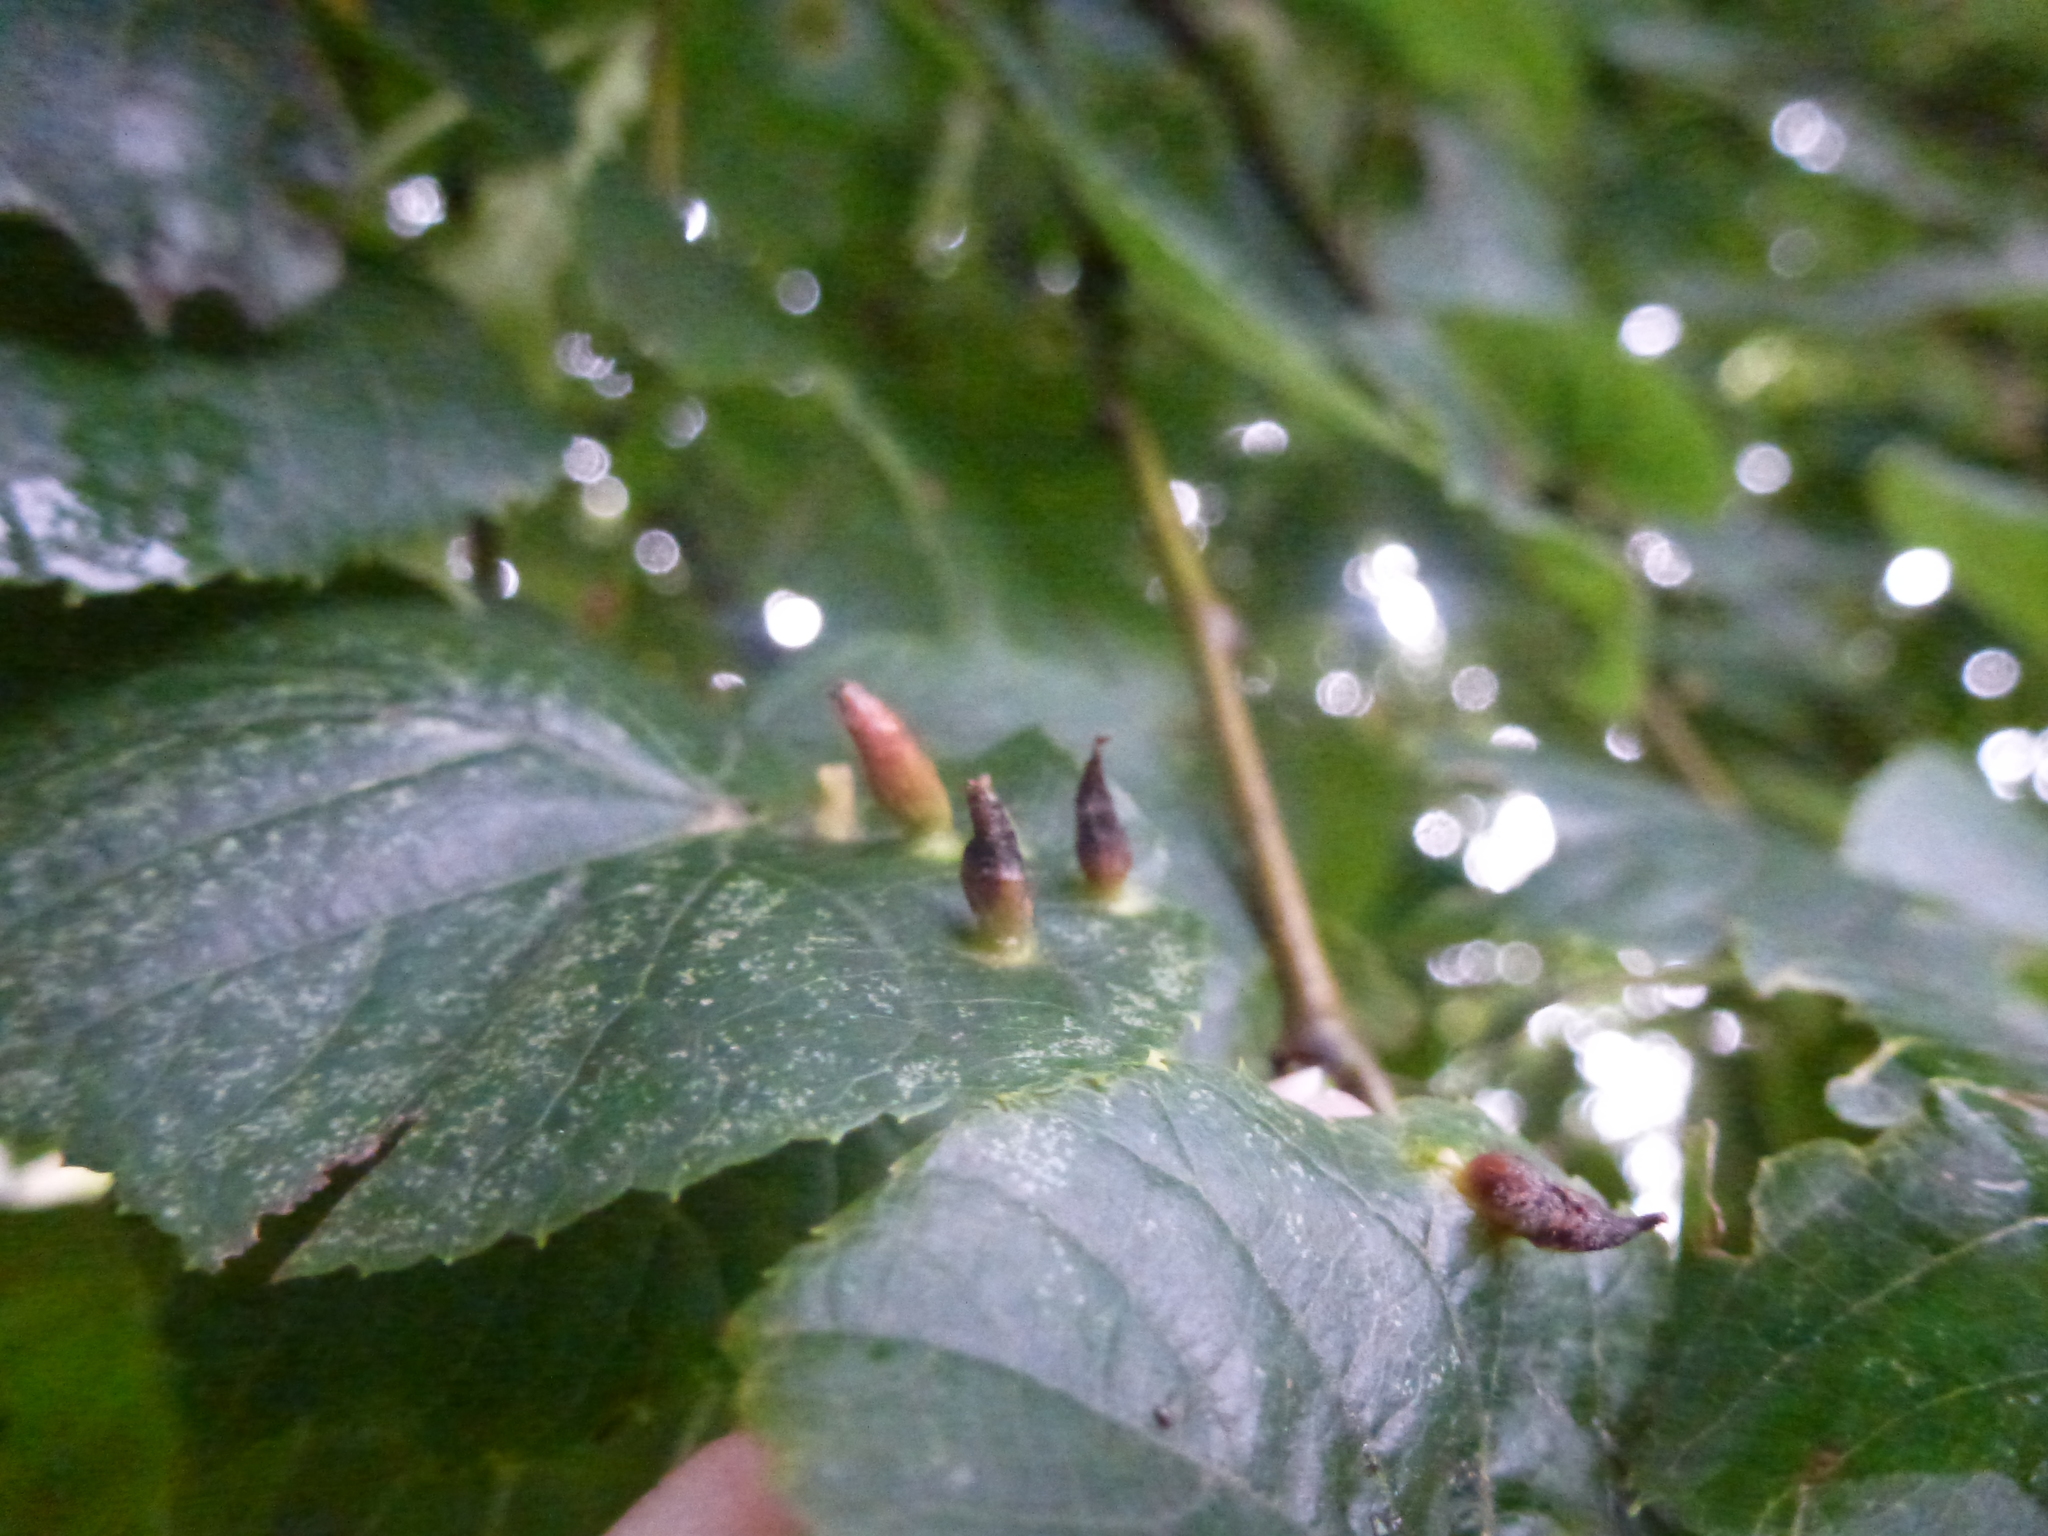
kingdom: Animalia
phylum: Arthropoda
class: Arachnida
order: Trombidiformes
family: Eriophyidae
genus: Eriophyes
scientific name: Eriophyes tiliae
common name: Red nail gall mite
